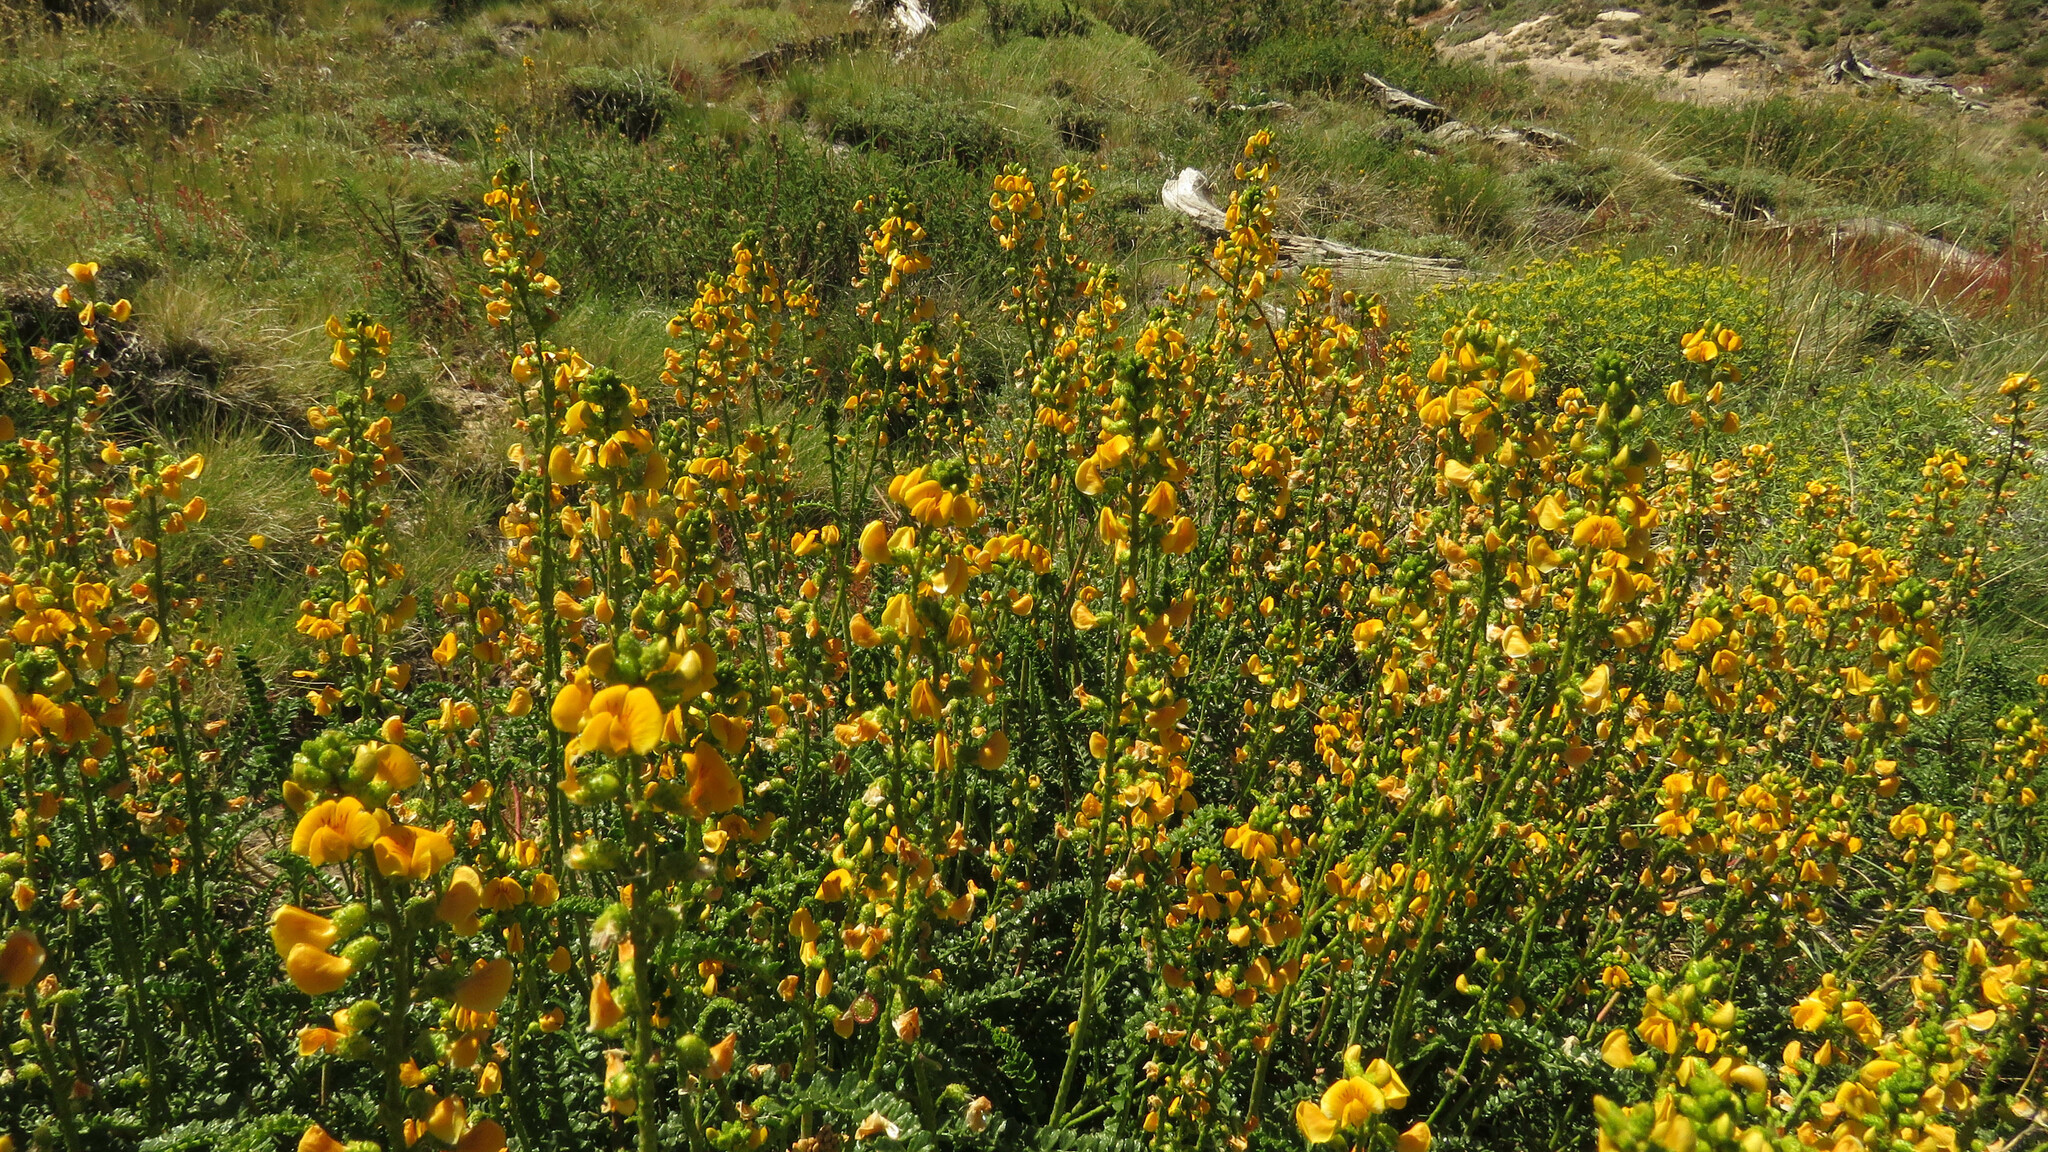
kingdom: Plantae
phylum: Tracheophyta
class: Magnoliopsida
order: Fabales
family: Fabaceae
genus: Adesmia
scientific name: Adesmia boronioides
